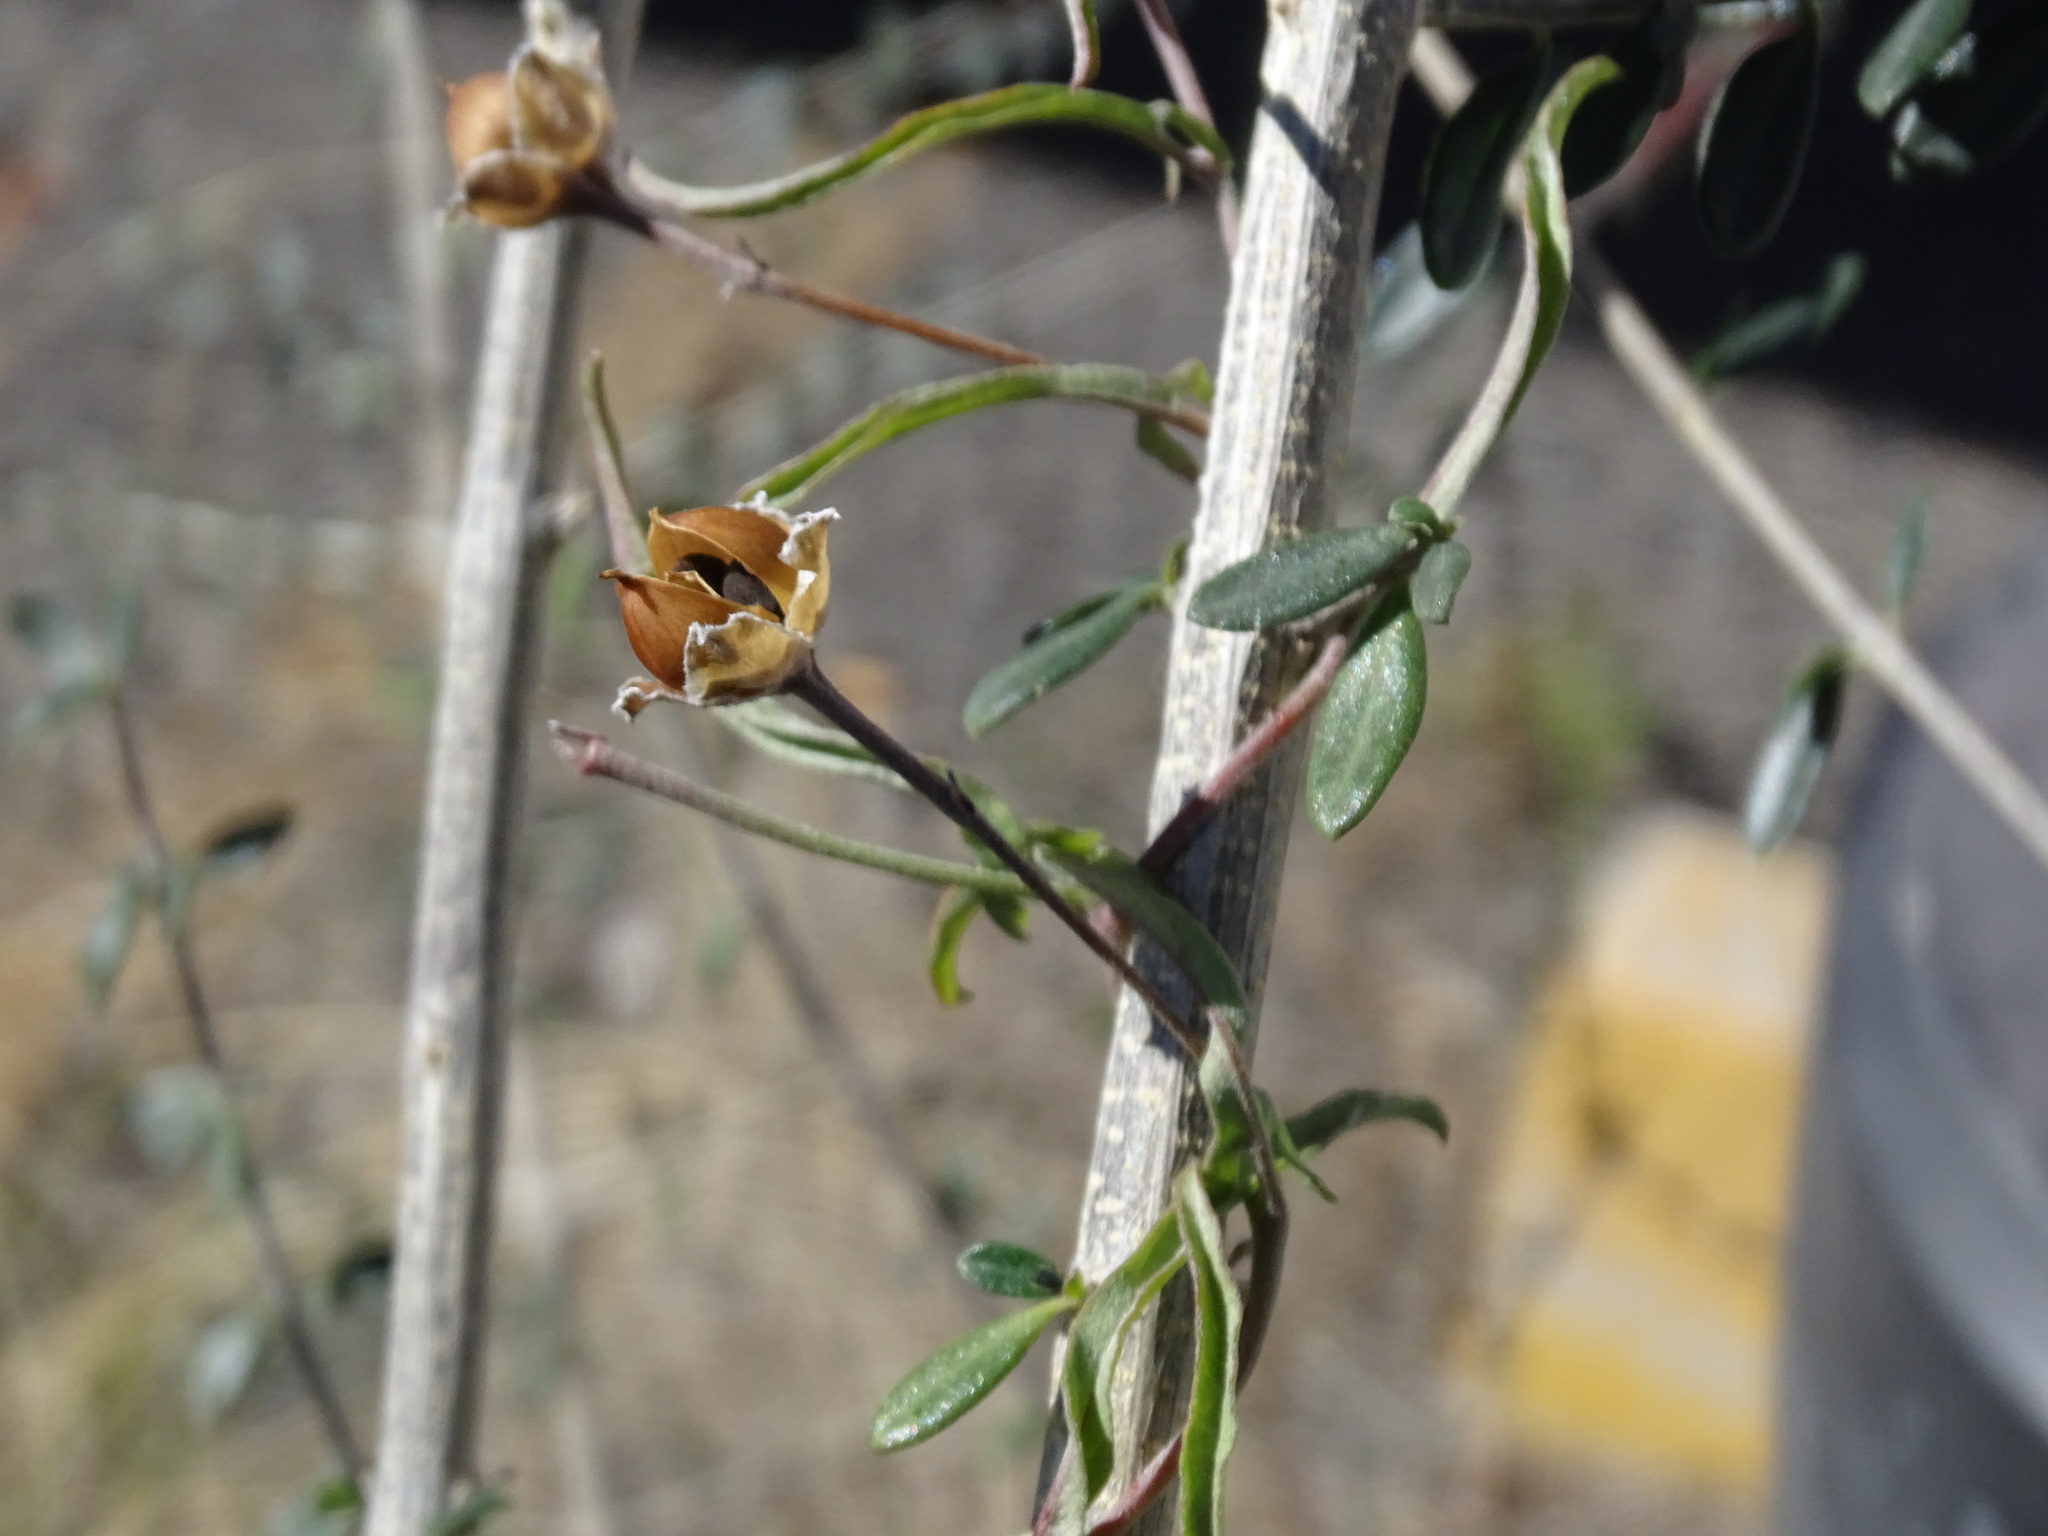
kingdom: Plantae
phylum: Tracheophyta
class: Magnoliopsida
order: Solanales
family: Convolvulaceae
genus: Convolvulus
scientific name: Convolvulus equitans
